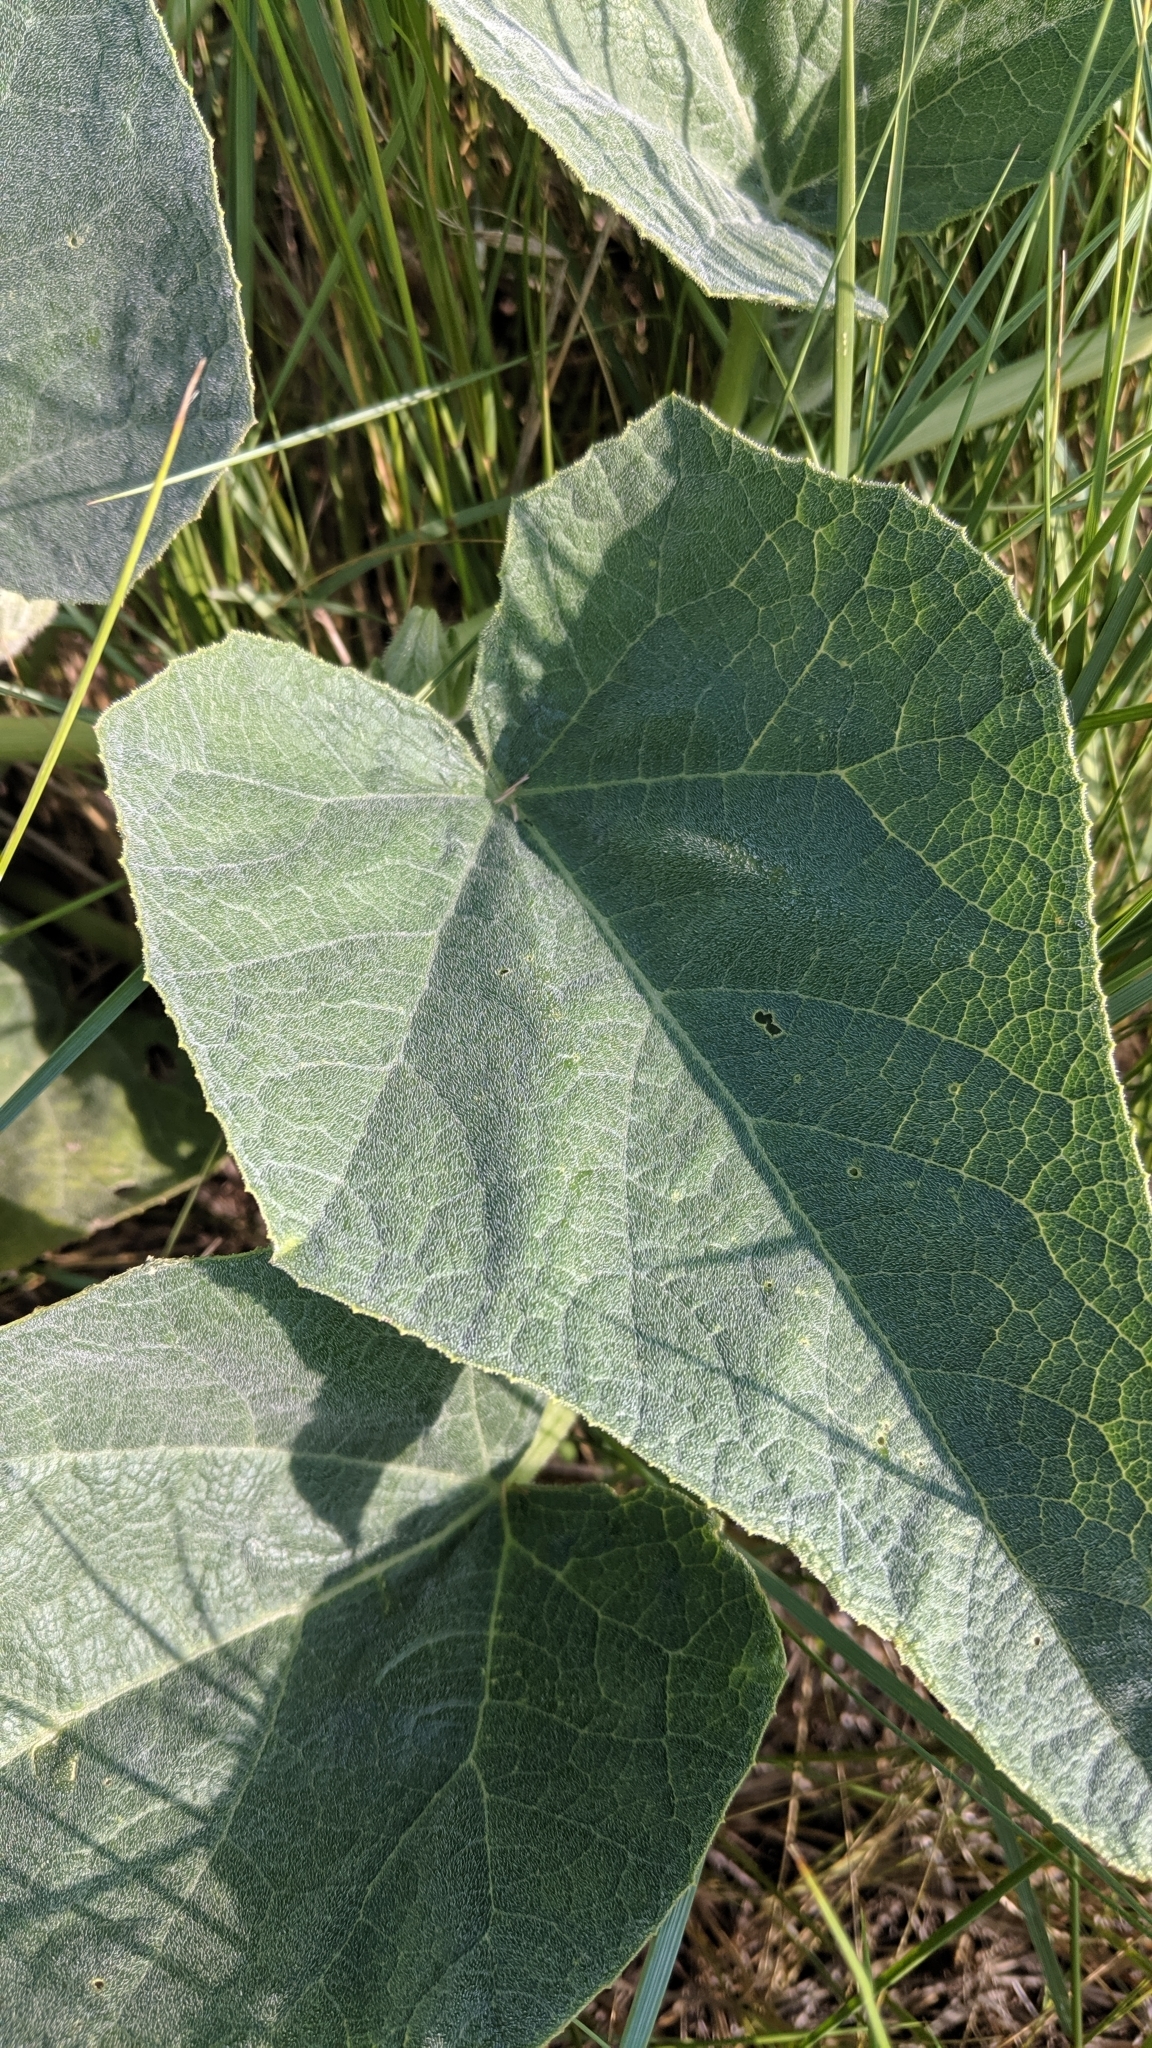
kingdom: Plantae
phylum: Tracheophyta
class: Magnoliopsida
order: Cucurbitales
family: Cucurbitaceae
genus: Cucurbita
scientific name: Cucurbita foetidissima
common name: Buffalo gourd
